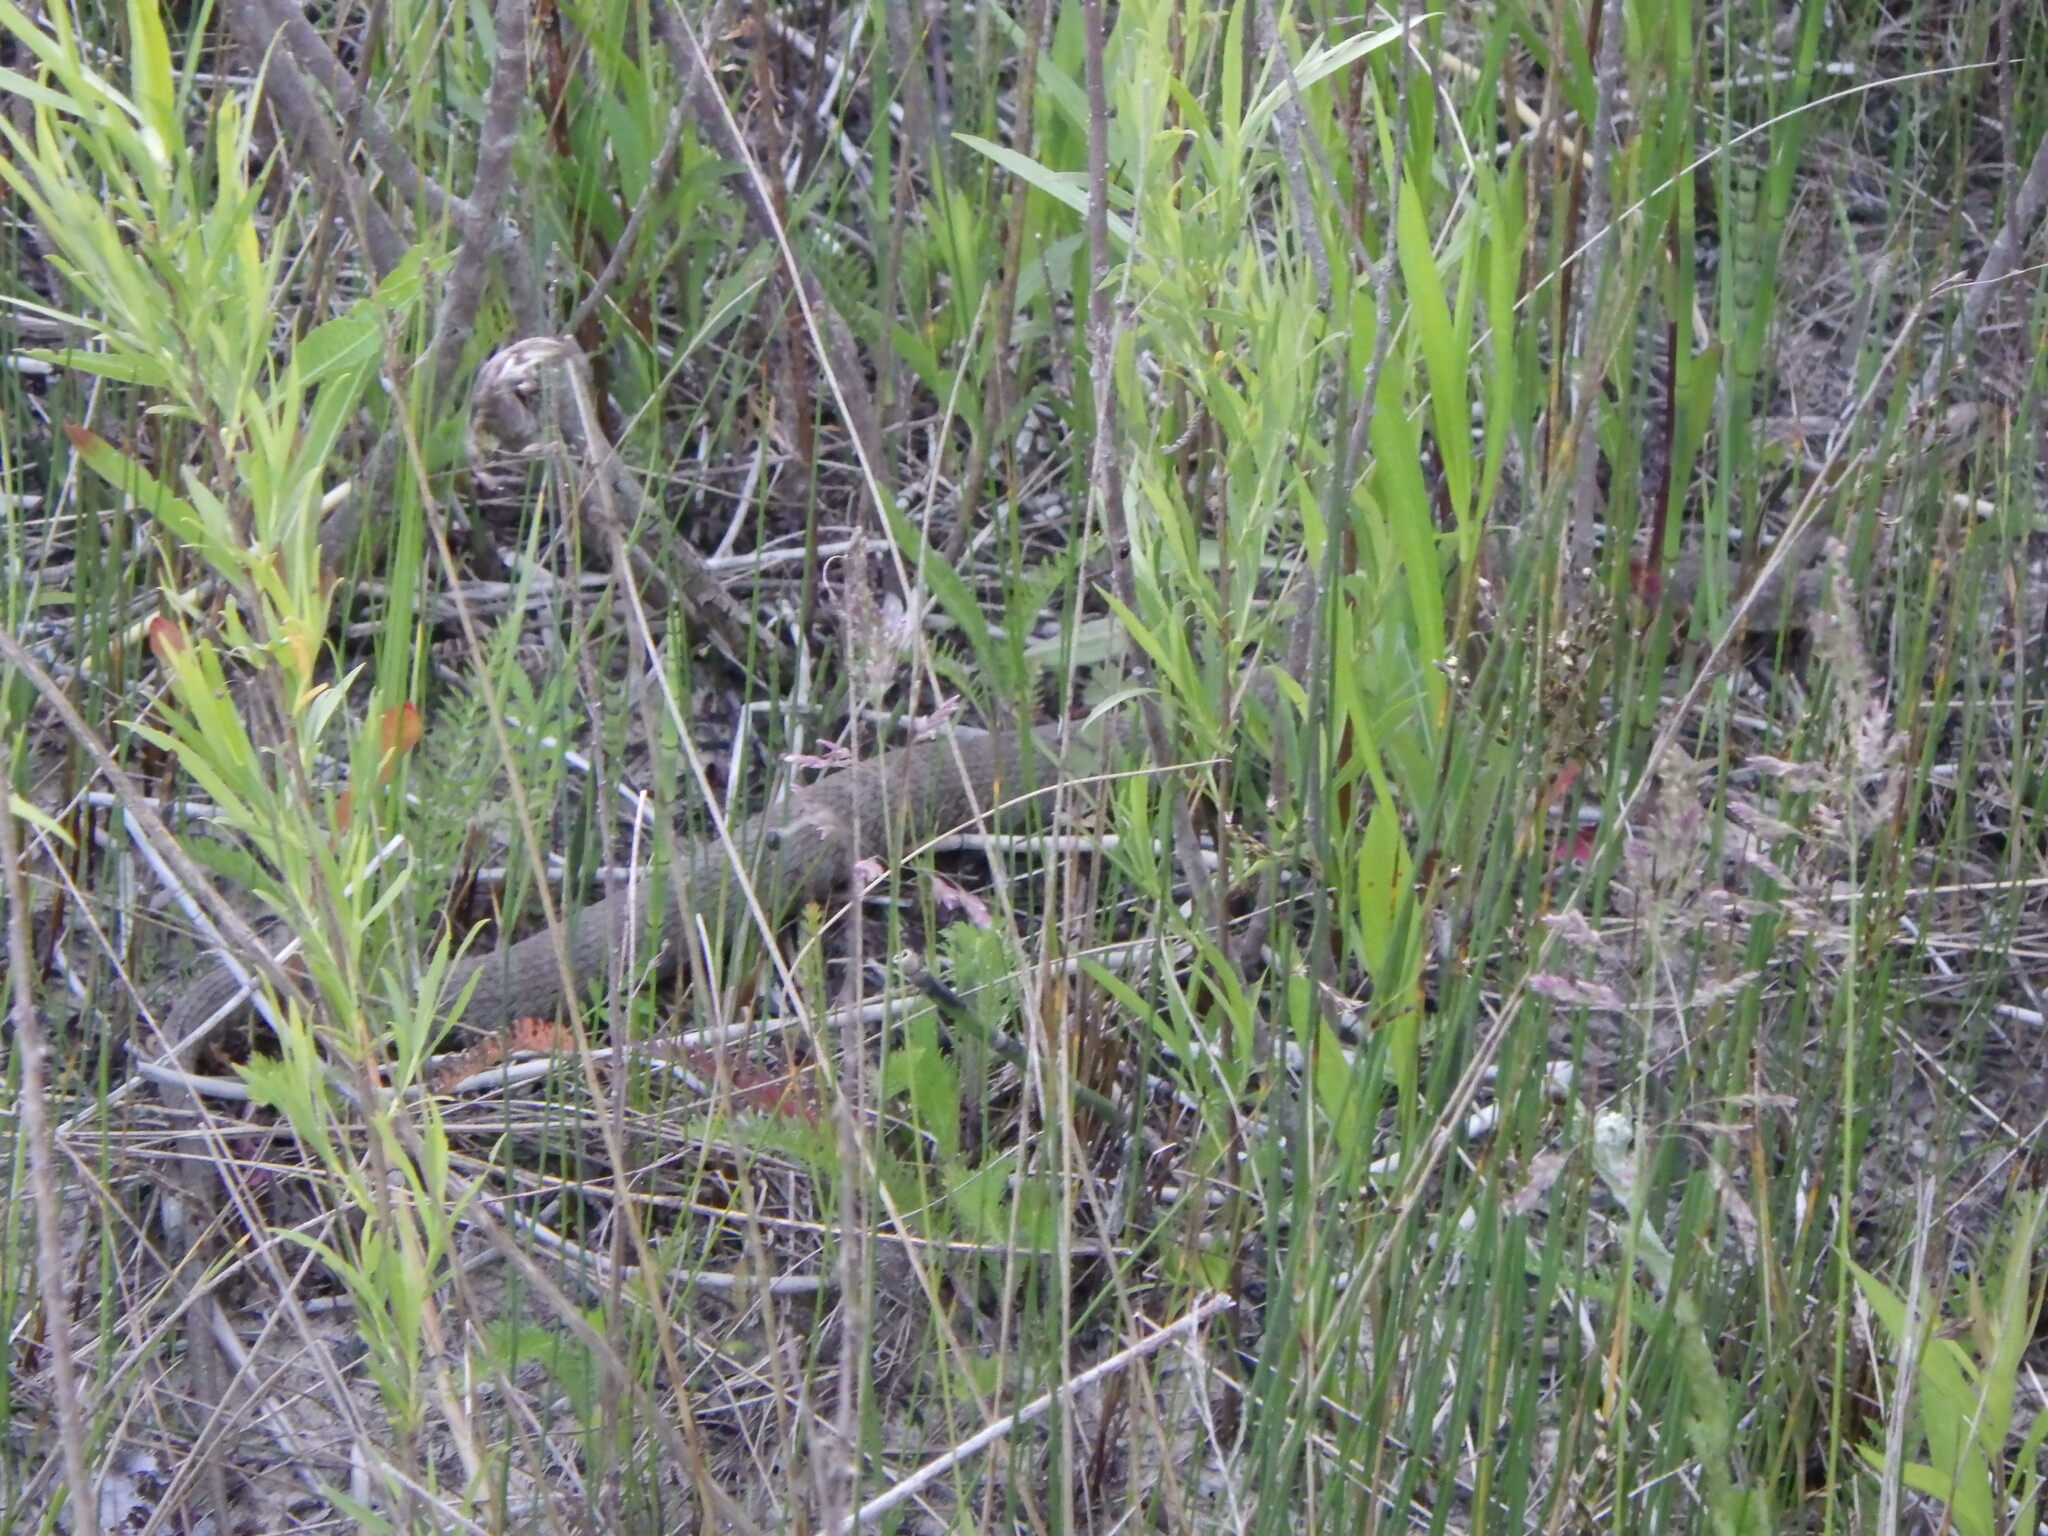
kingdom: Animalia
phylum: Chordata
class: Squamata
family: Colubridae
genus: Nerodia
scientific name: Nerodia sipedon
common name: Northern water snake
